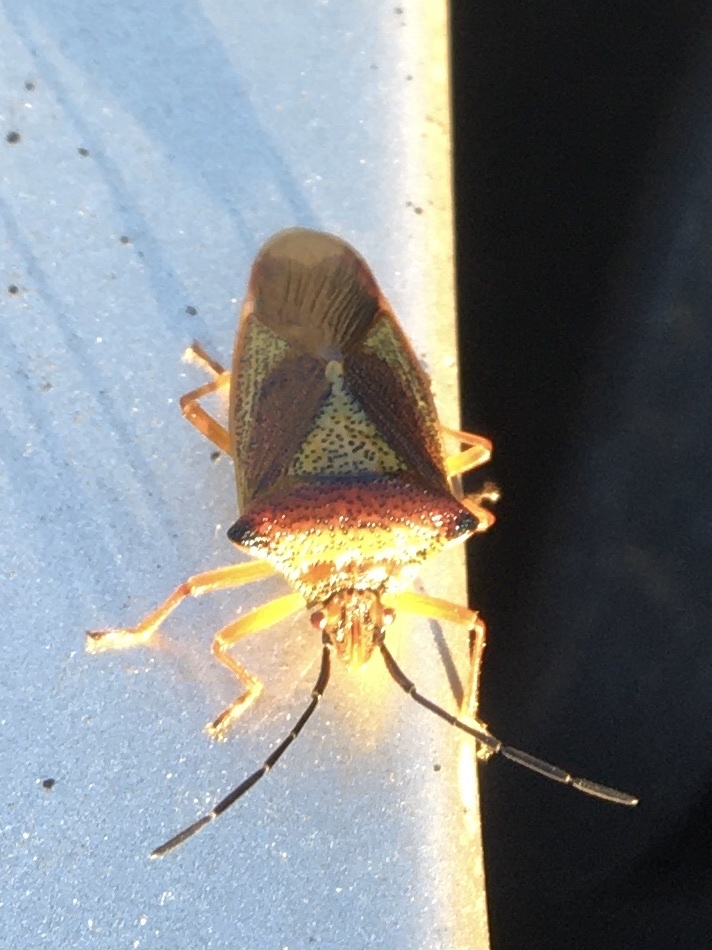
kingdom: Animalia
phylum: Arthropoda
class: Insecta
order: Hemiptera
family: Acanthosomatidae
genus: Acanthosoma
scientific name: Acanthosoma haemorrhoidale
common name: Hawthorn shieldbug
